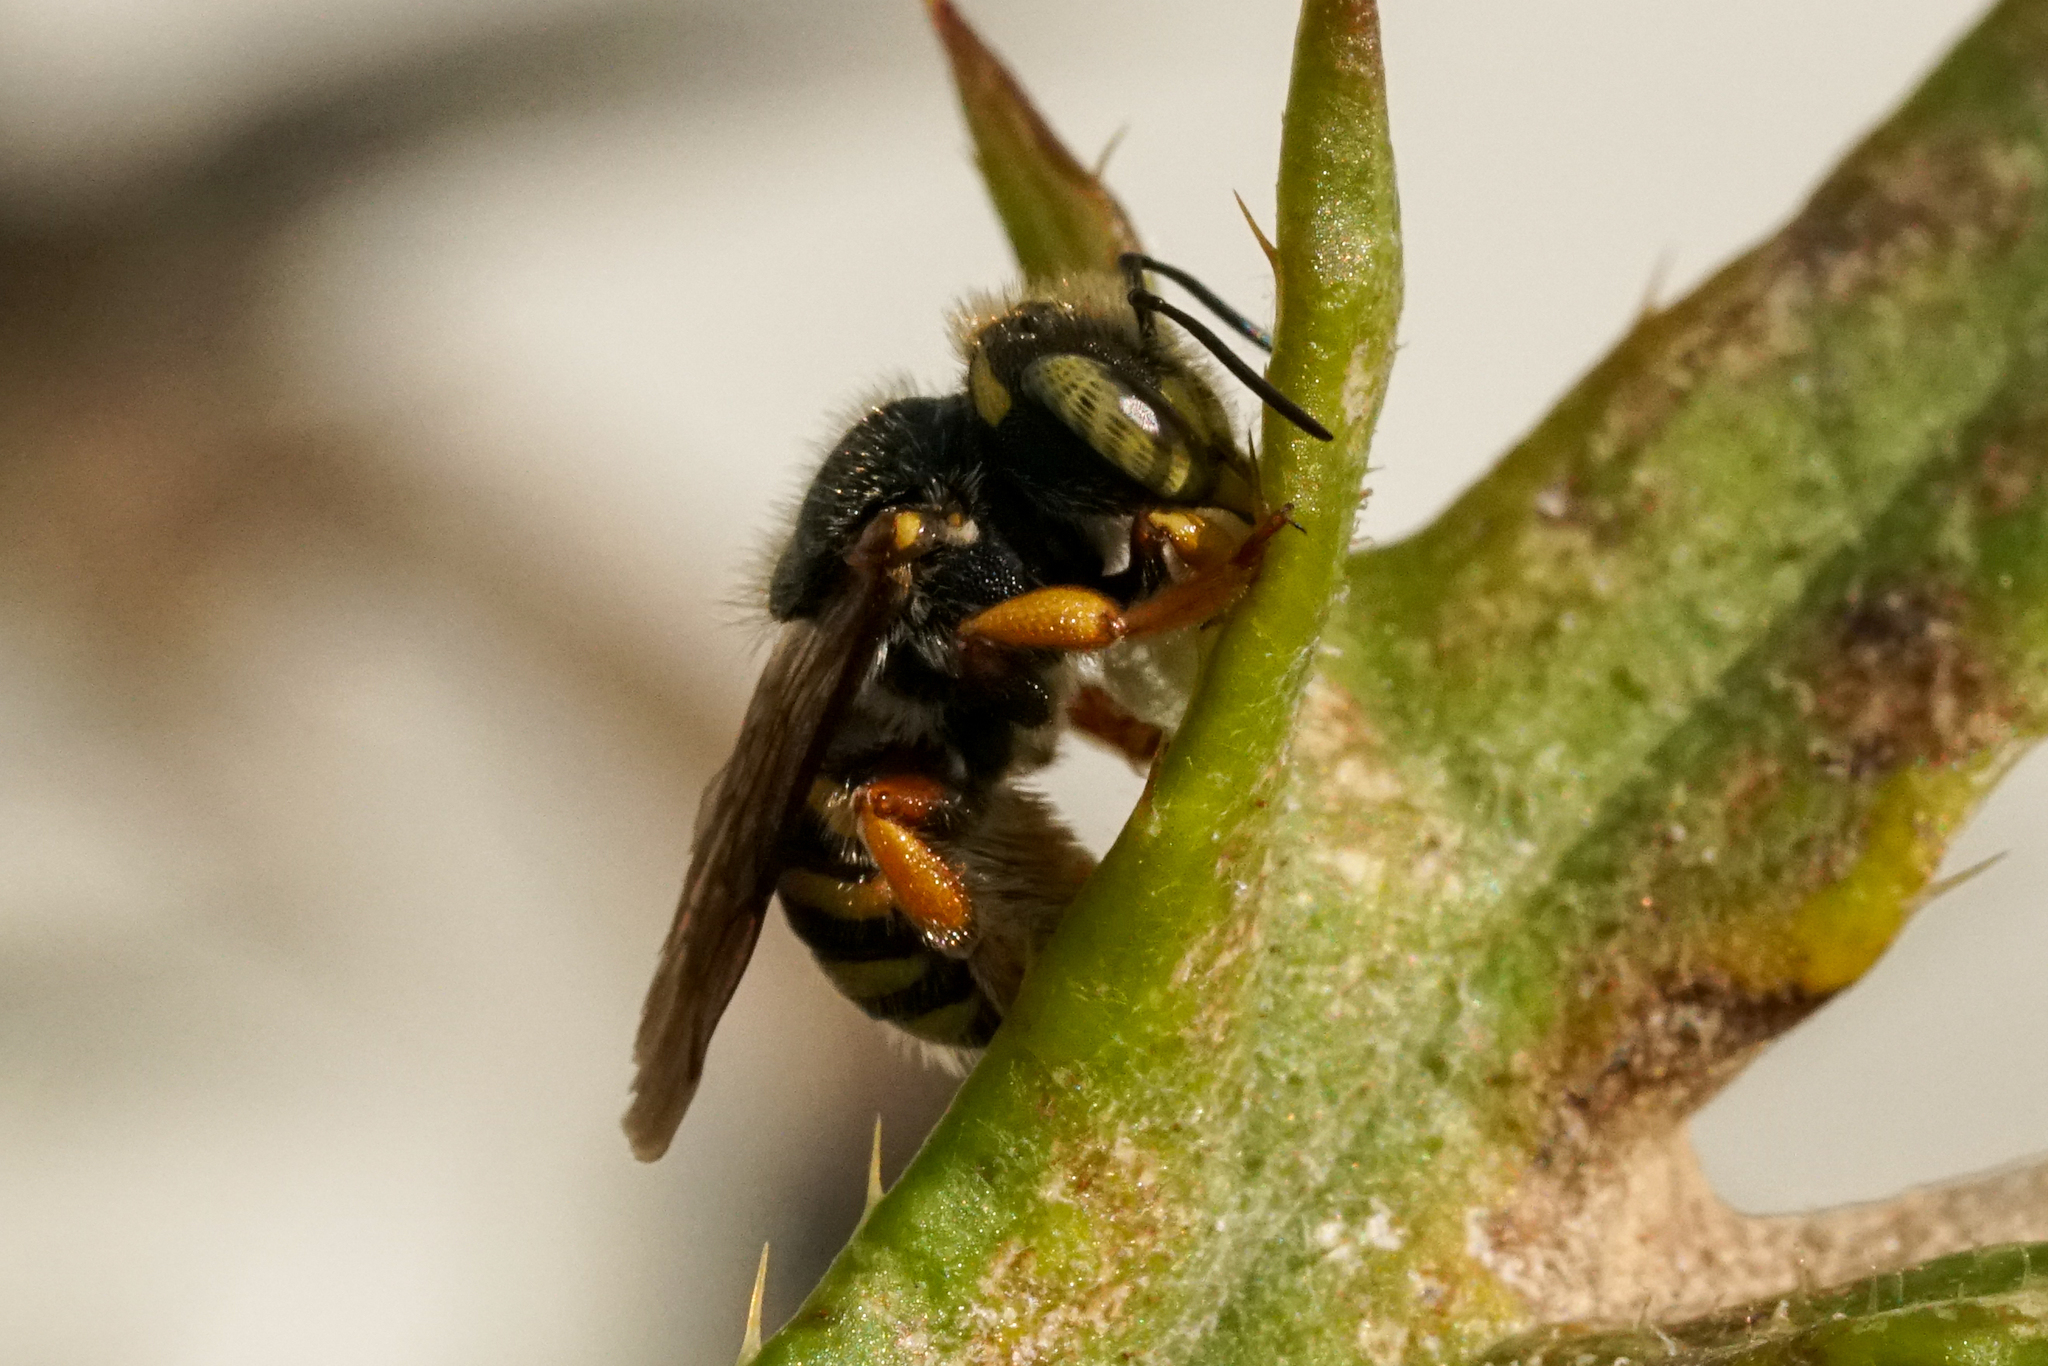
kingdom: Animalia
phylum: Arthropoda
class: Insecta
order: Hymenoptera
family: Megachilidae
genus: Anthidium
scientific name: Anthidium oblongatum
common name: Oblong wool carder bee
